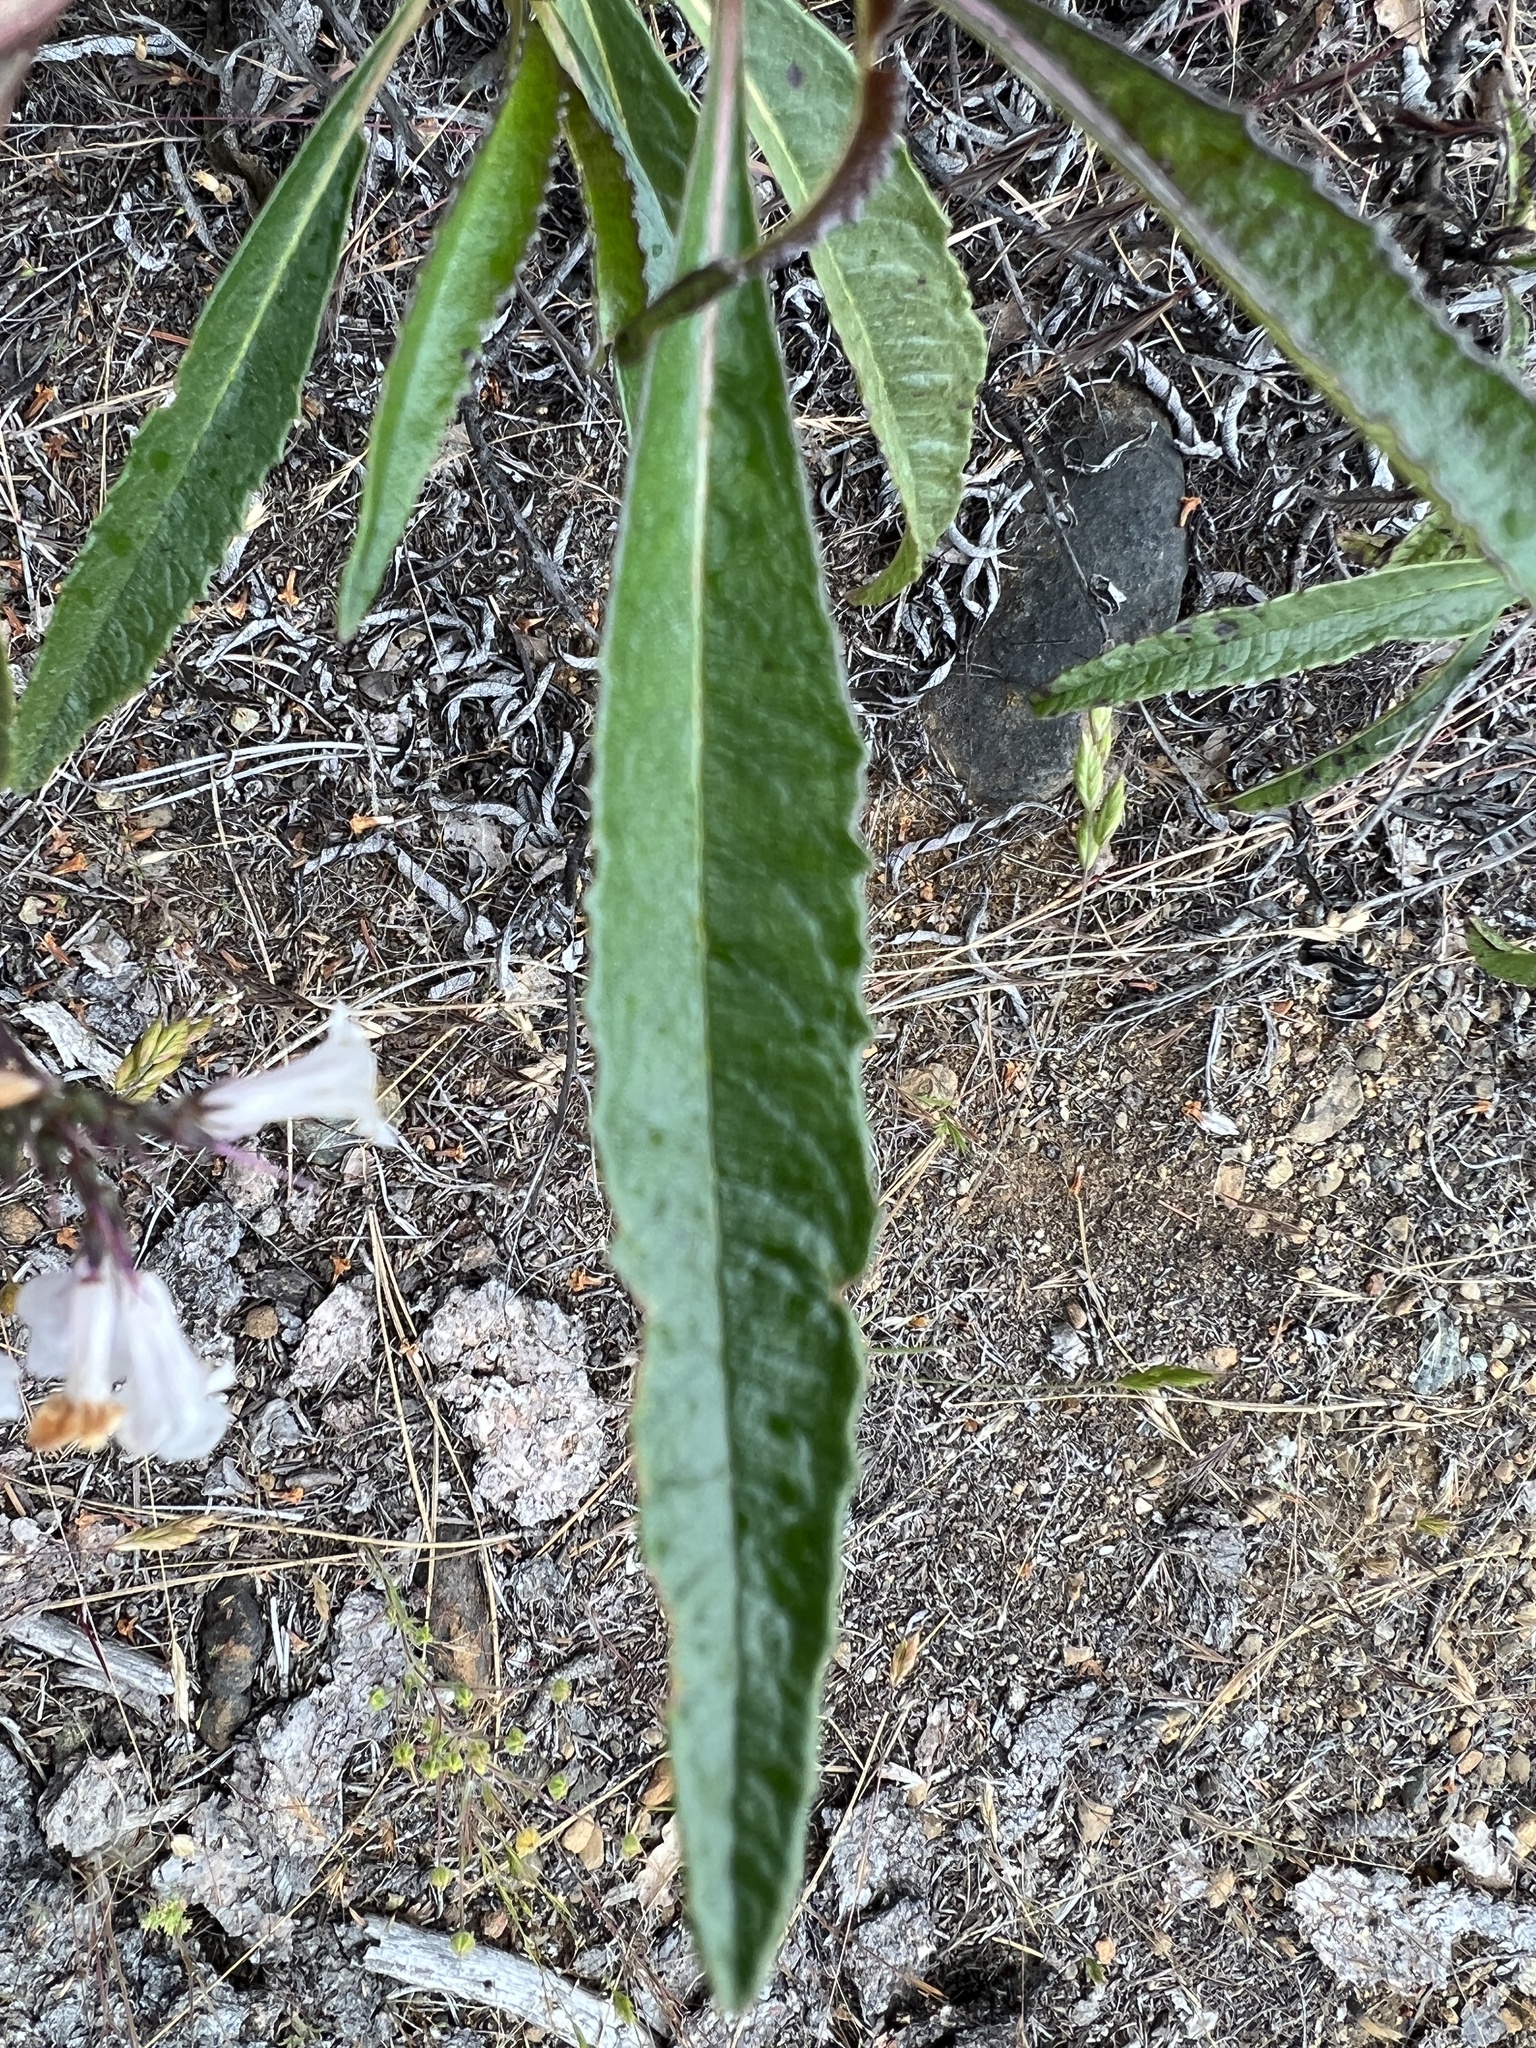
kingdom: Plantae
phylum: Tracheophyta
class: Magnoliopsida
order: Boraginales
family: Namaceae
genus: Eriodictyon
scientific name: Eriodictyon californicum
